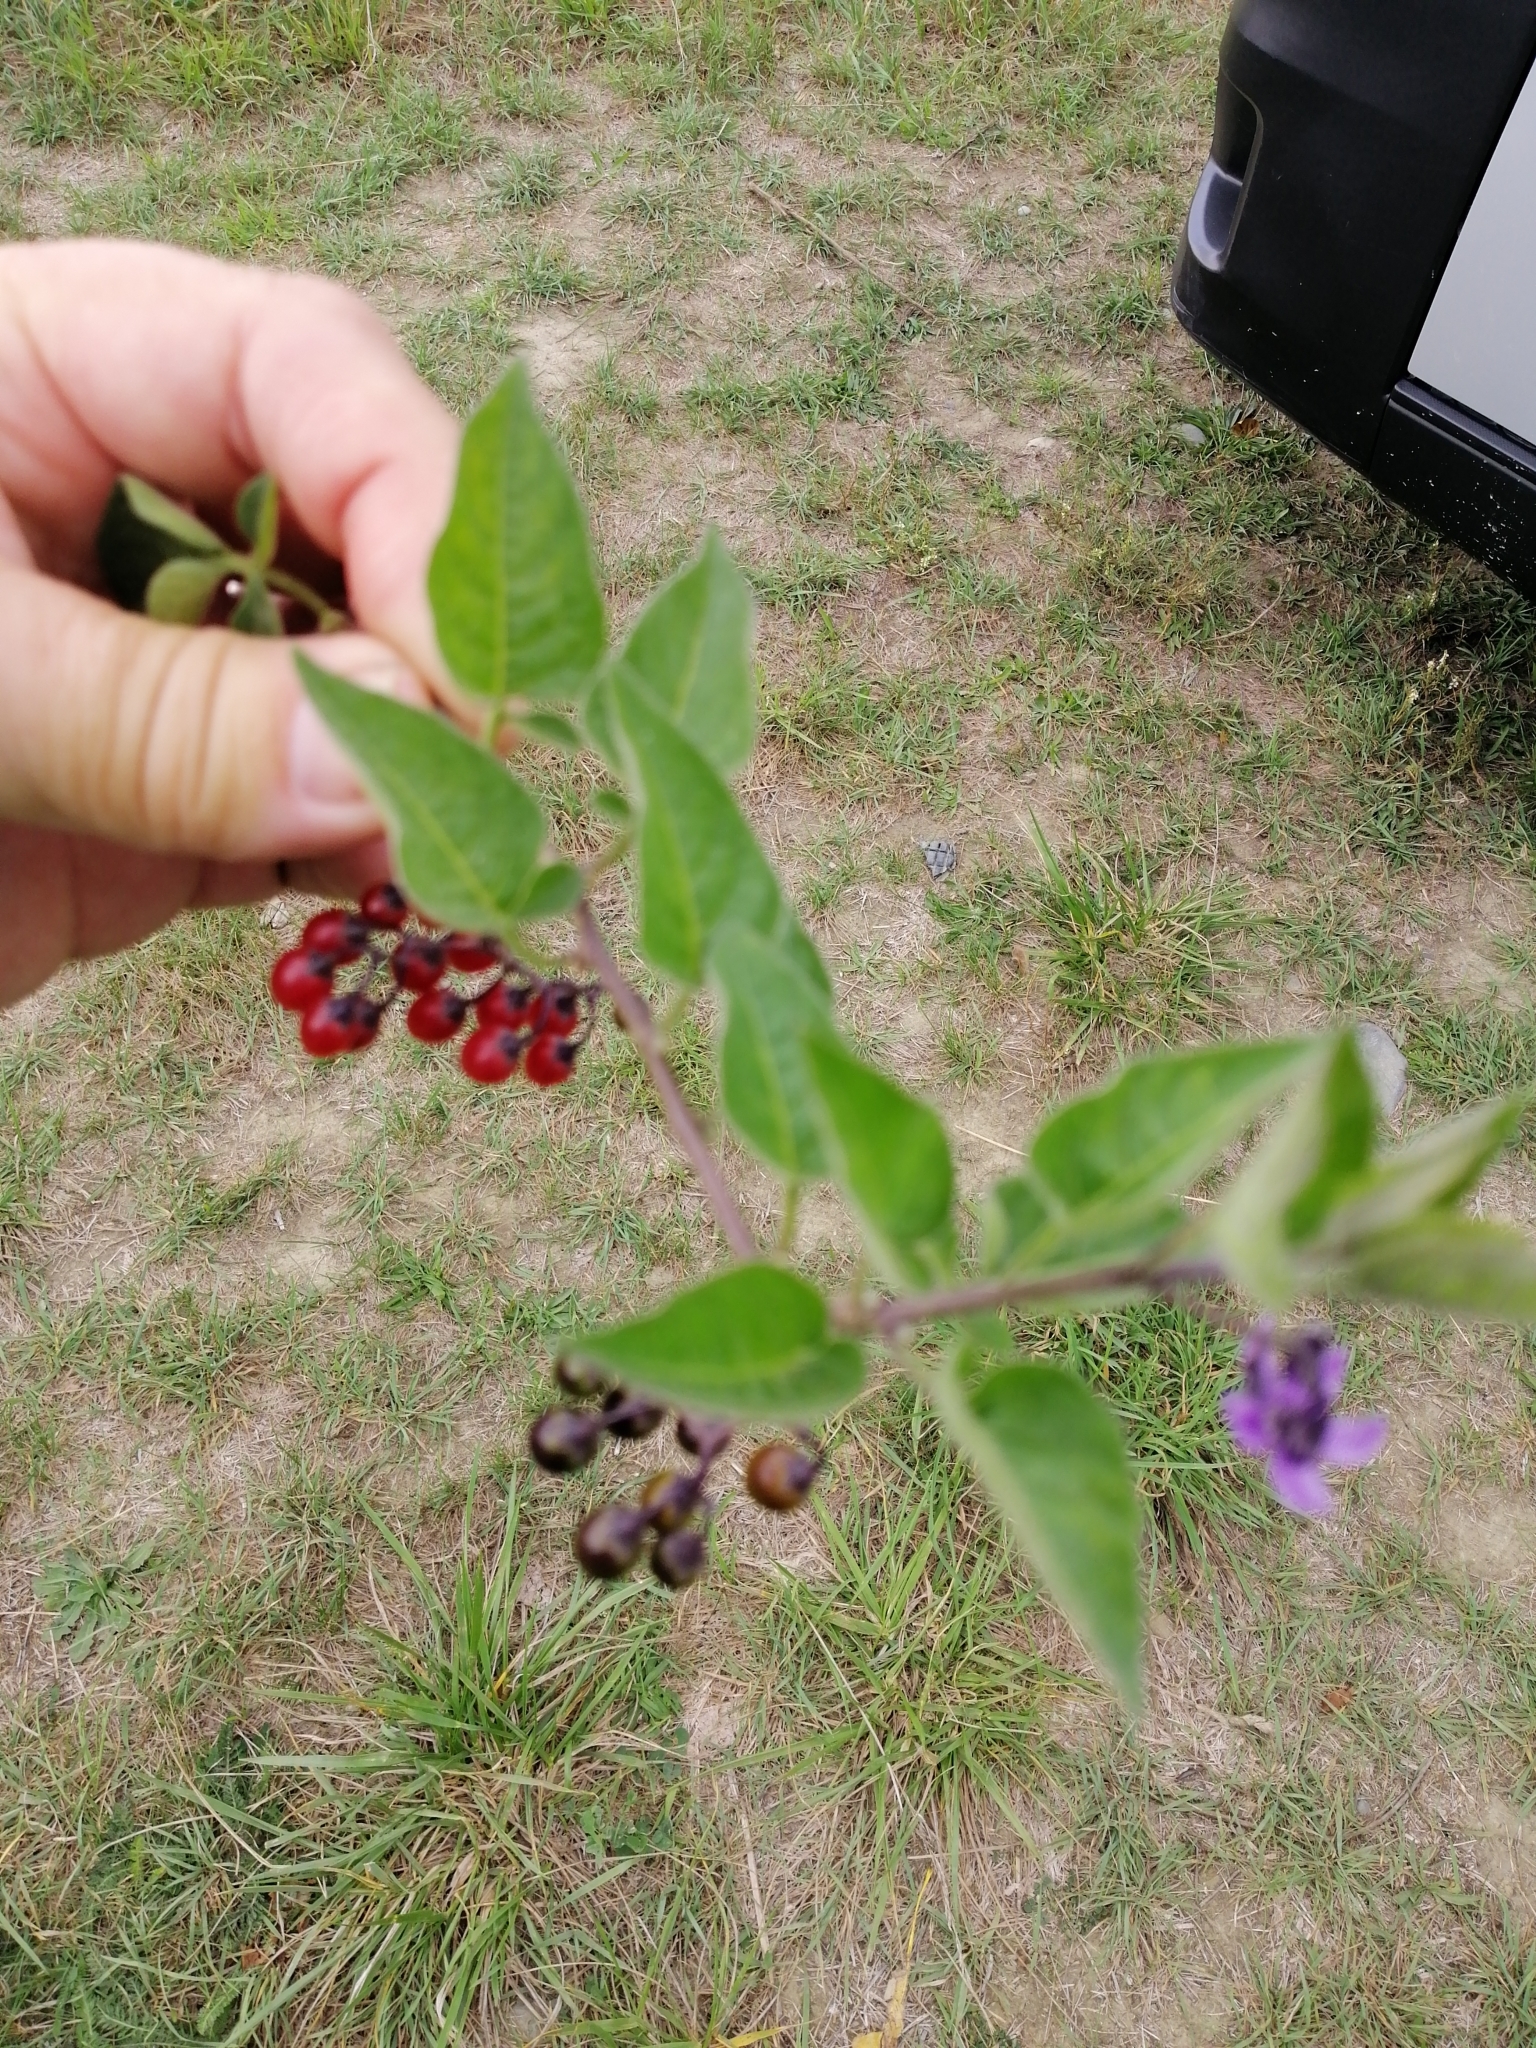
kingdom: Plantae
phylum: Tracheophyta
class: Magnoliopsida
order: Solanales
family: Solanaceae
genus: Solanum
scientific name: Solanum dulcamara
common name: Climbing nightshade
